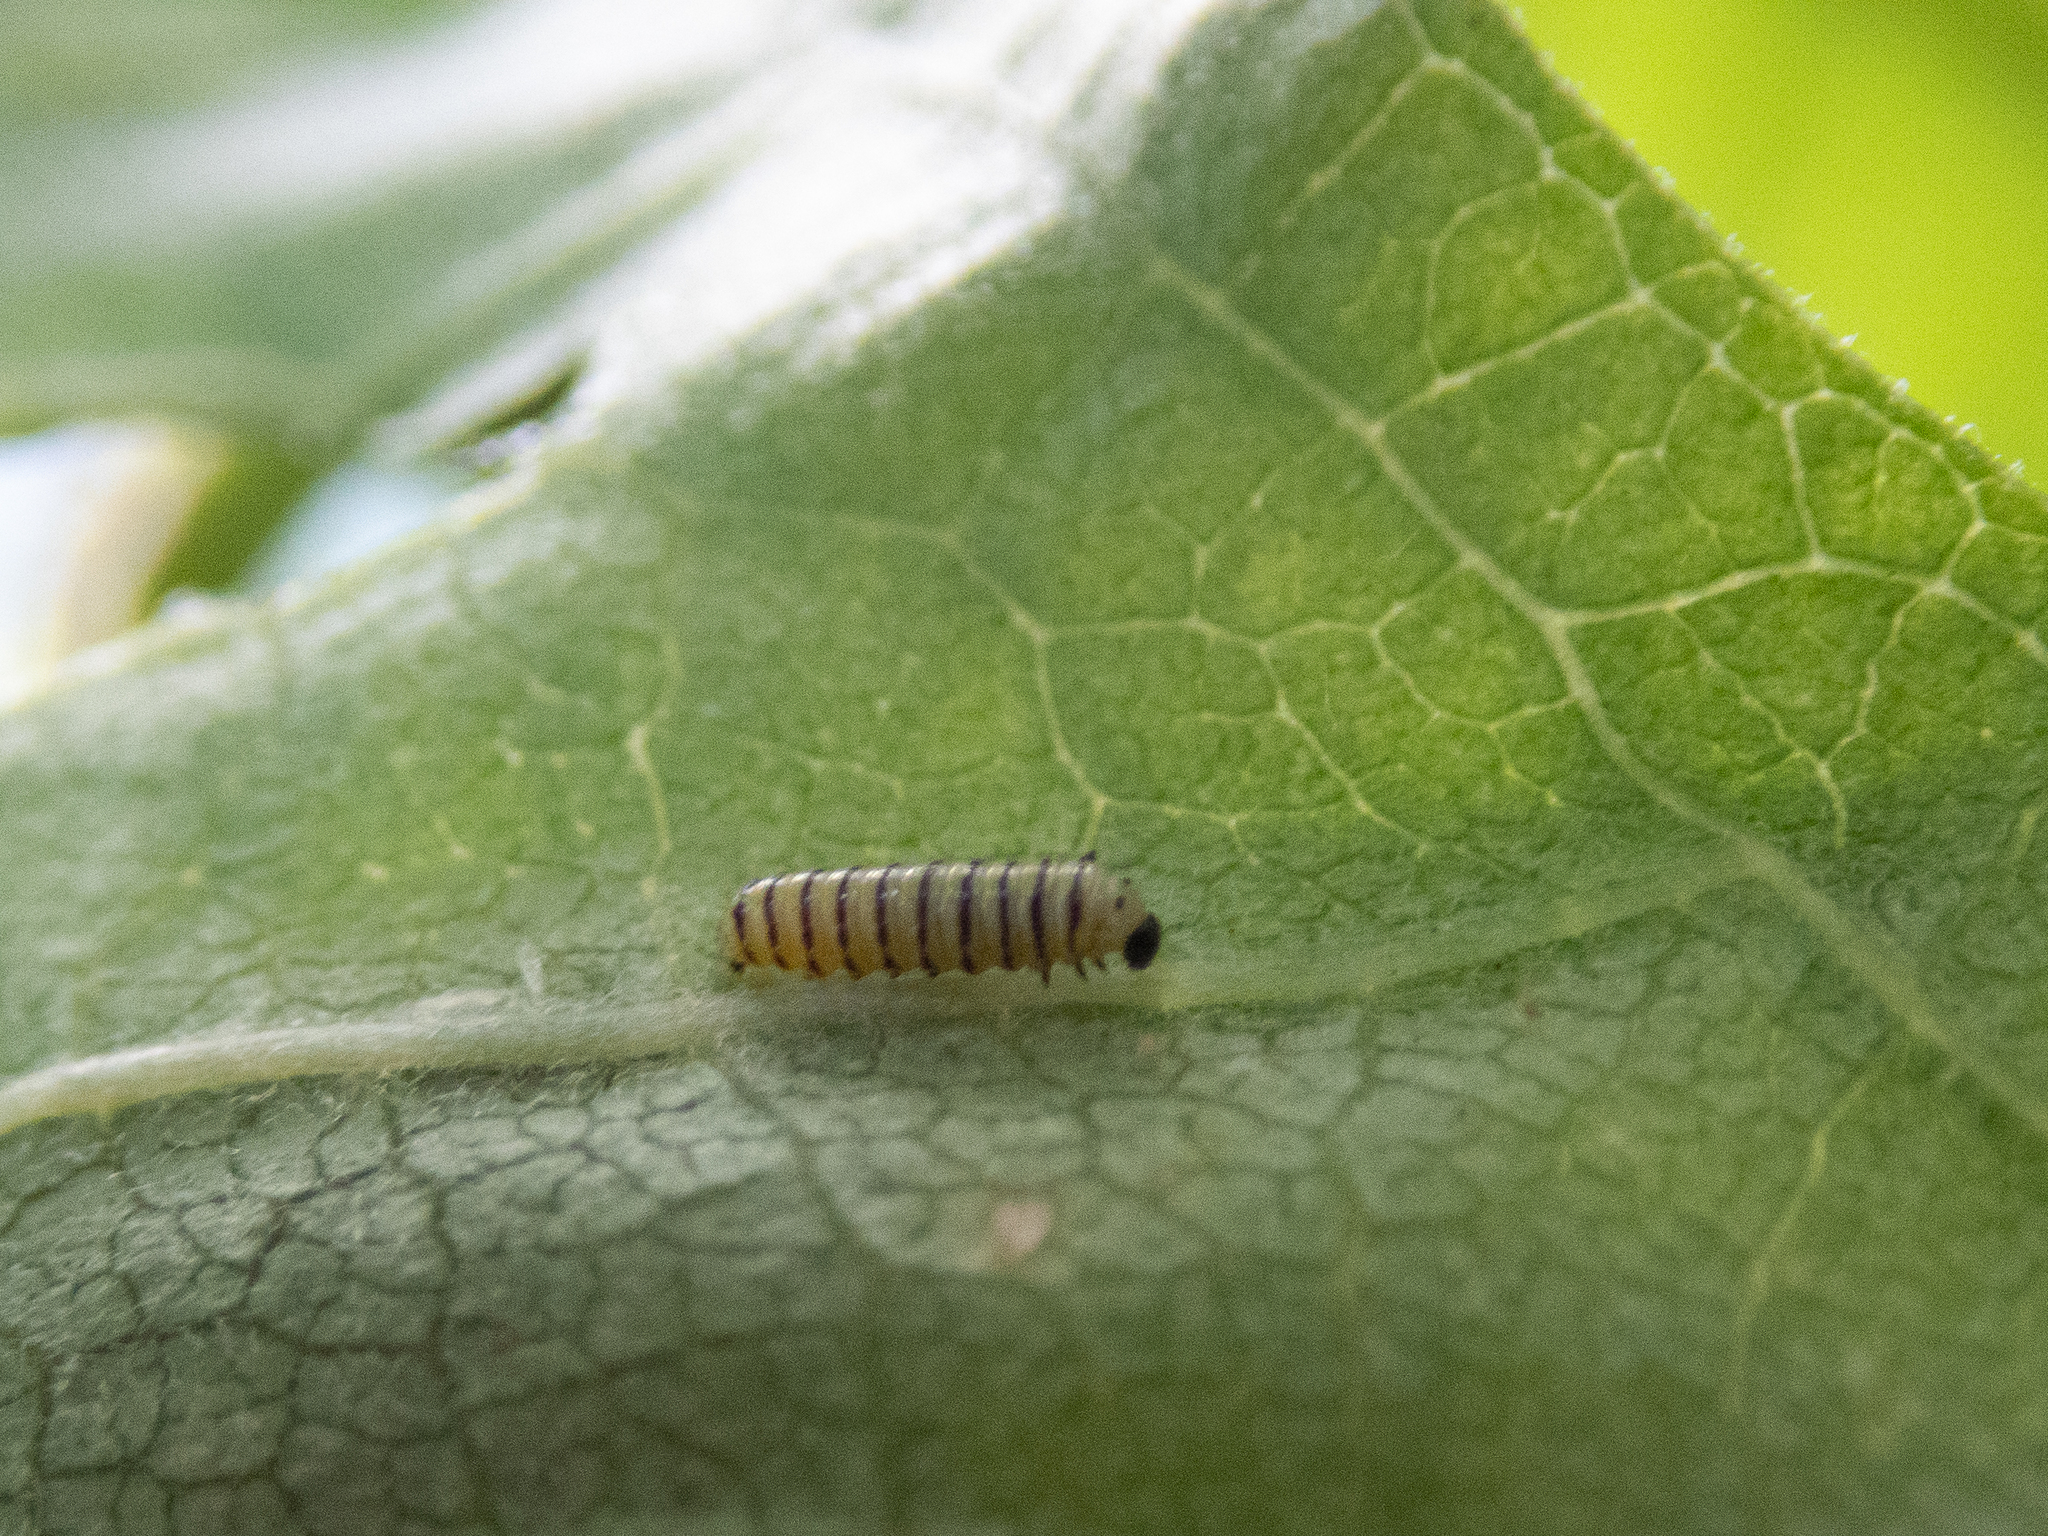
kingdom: Animalia
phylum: Arthropoda
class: Insecta
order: Lepidoptera
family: Nymphalidae
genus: Danaus
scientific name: Danaus plexippus
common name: Monarch
